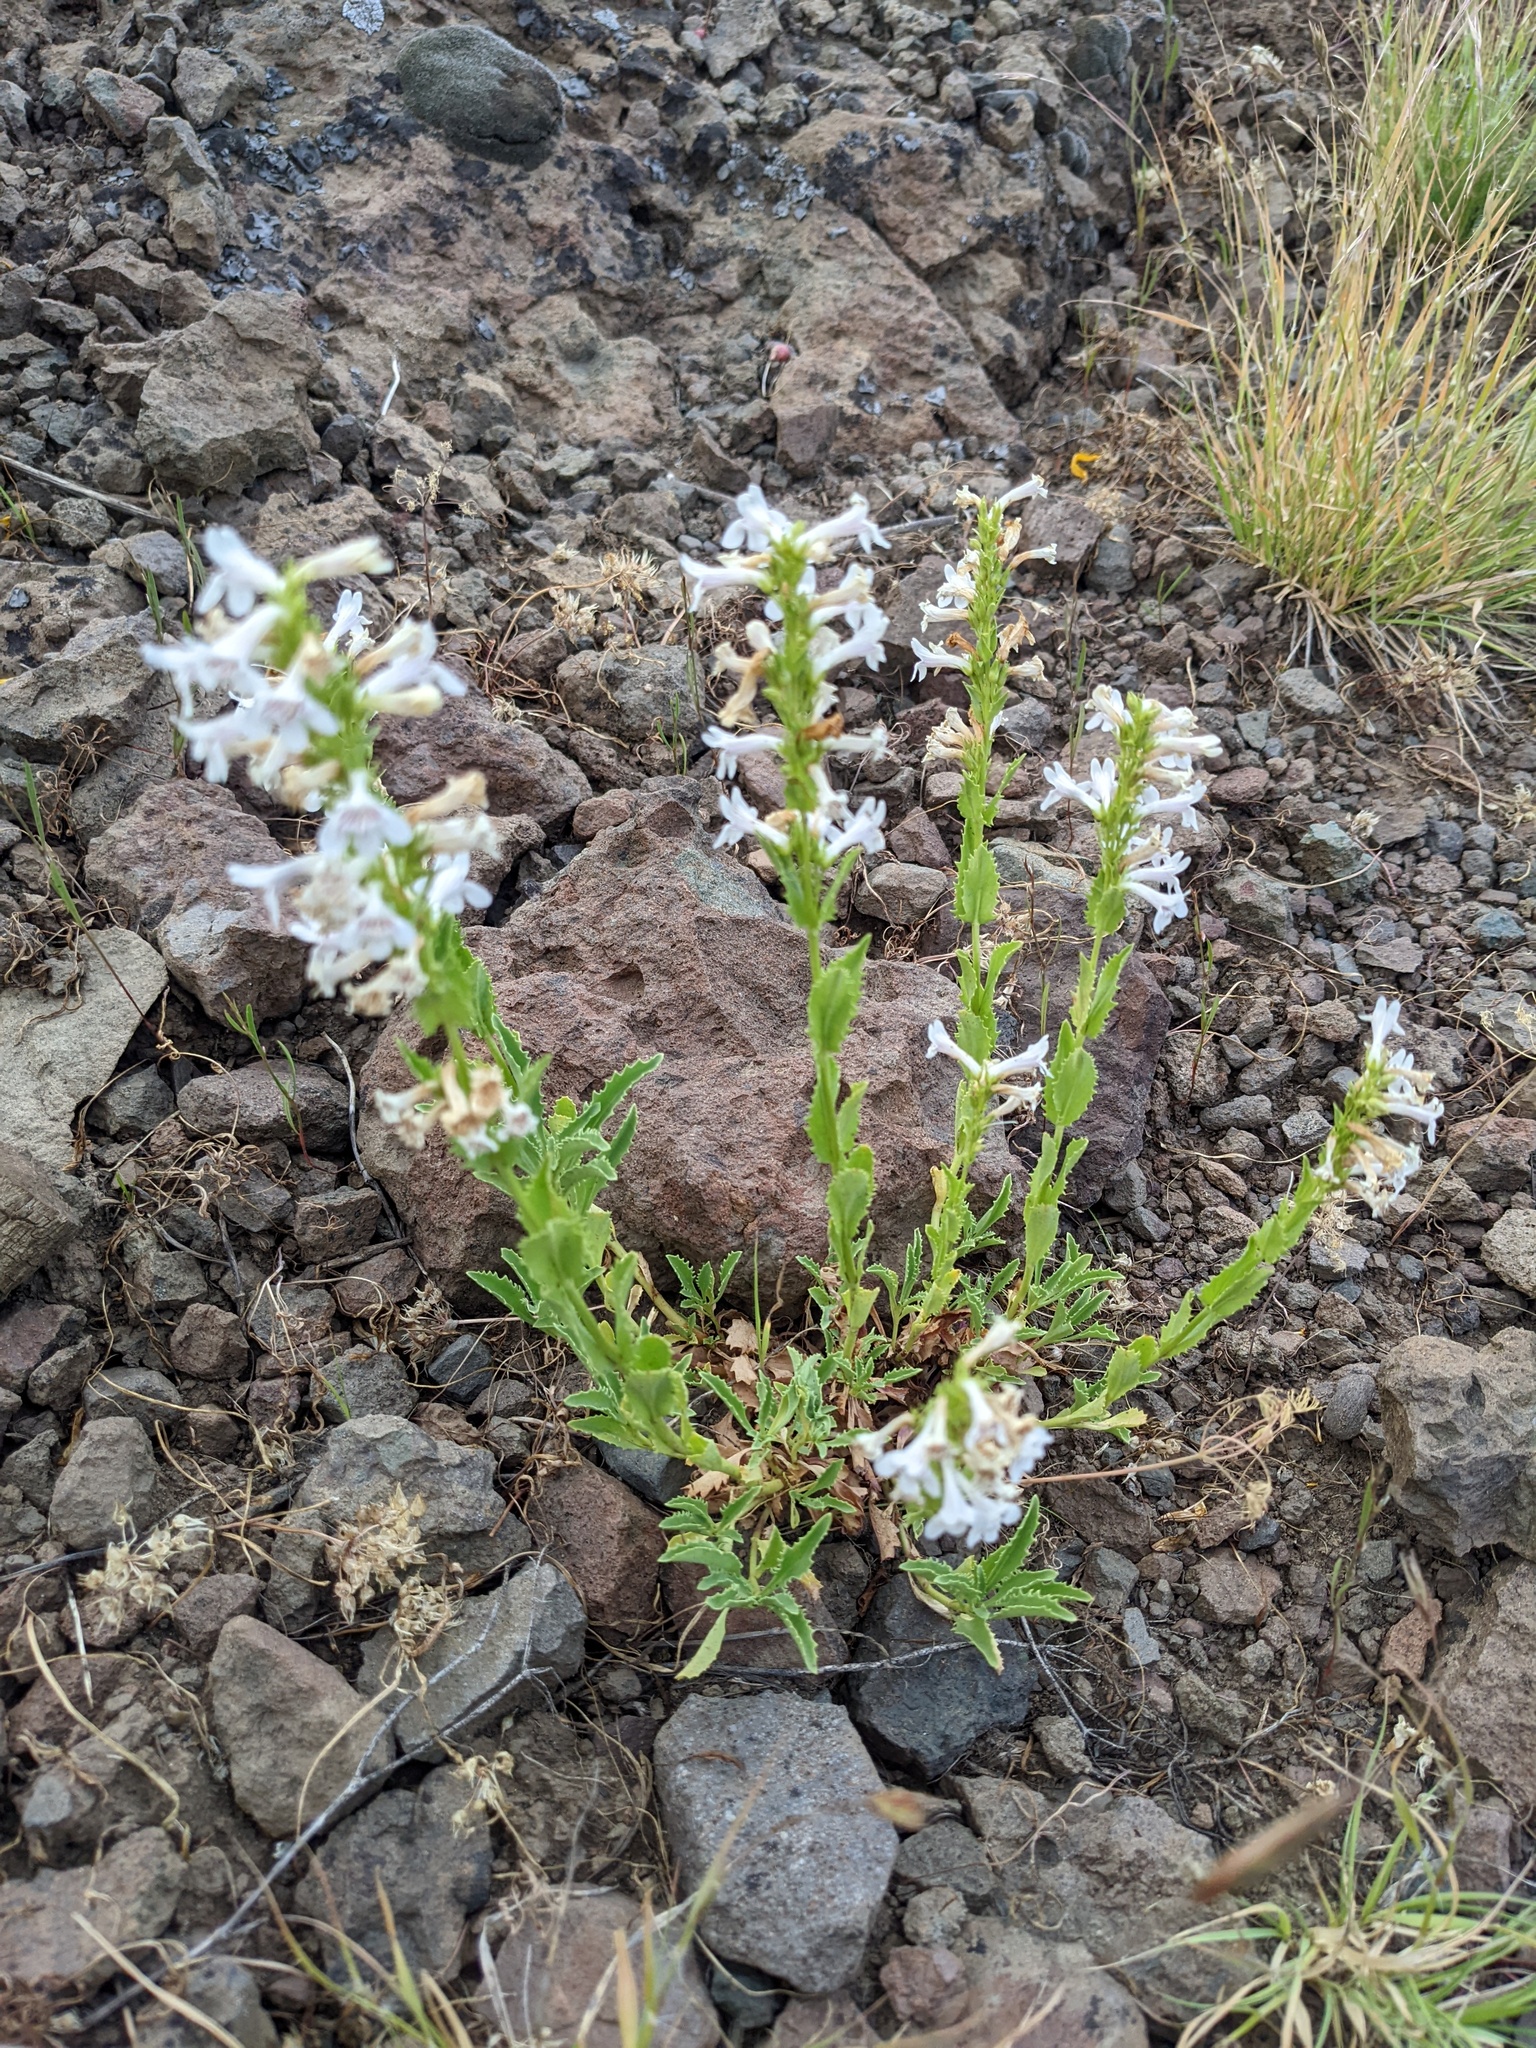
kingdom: Plantae
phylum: Tracheophyta
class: Magnoliopsida
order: Lamiales
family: Plantaginaceae
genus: Penstemon
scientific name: Penstemon deustus
